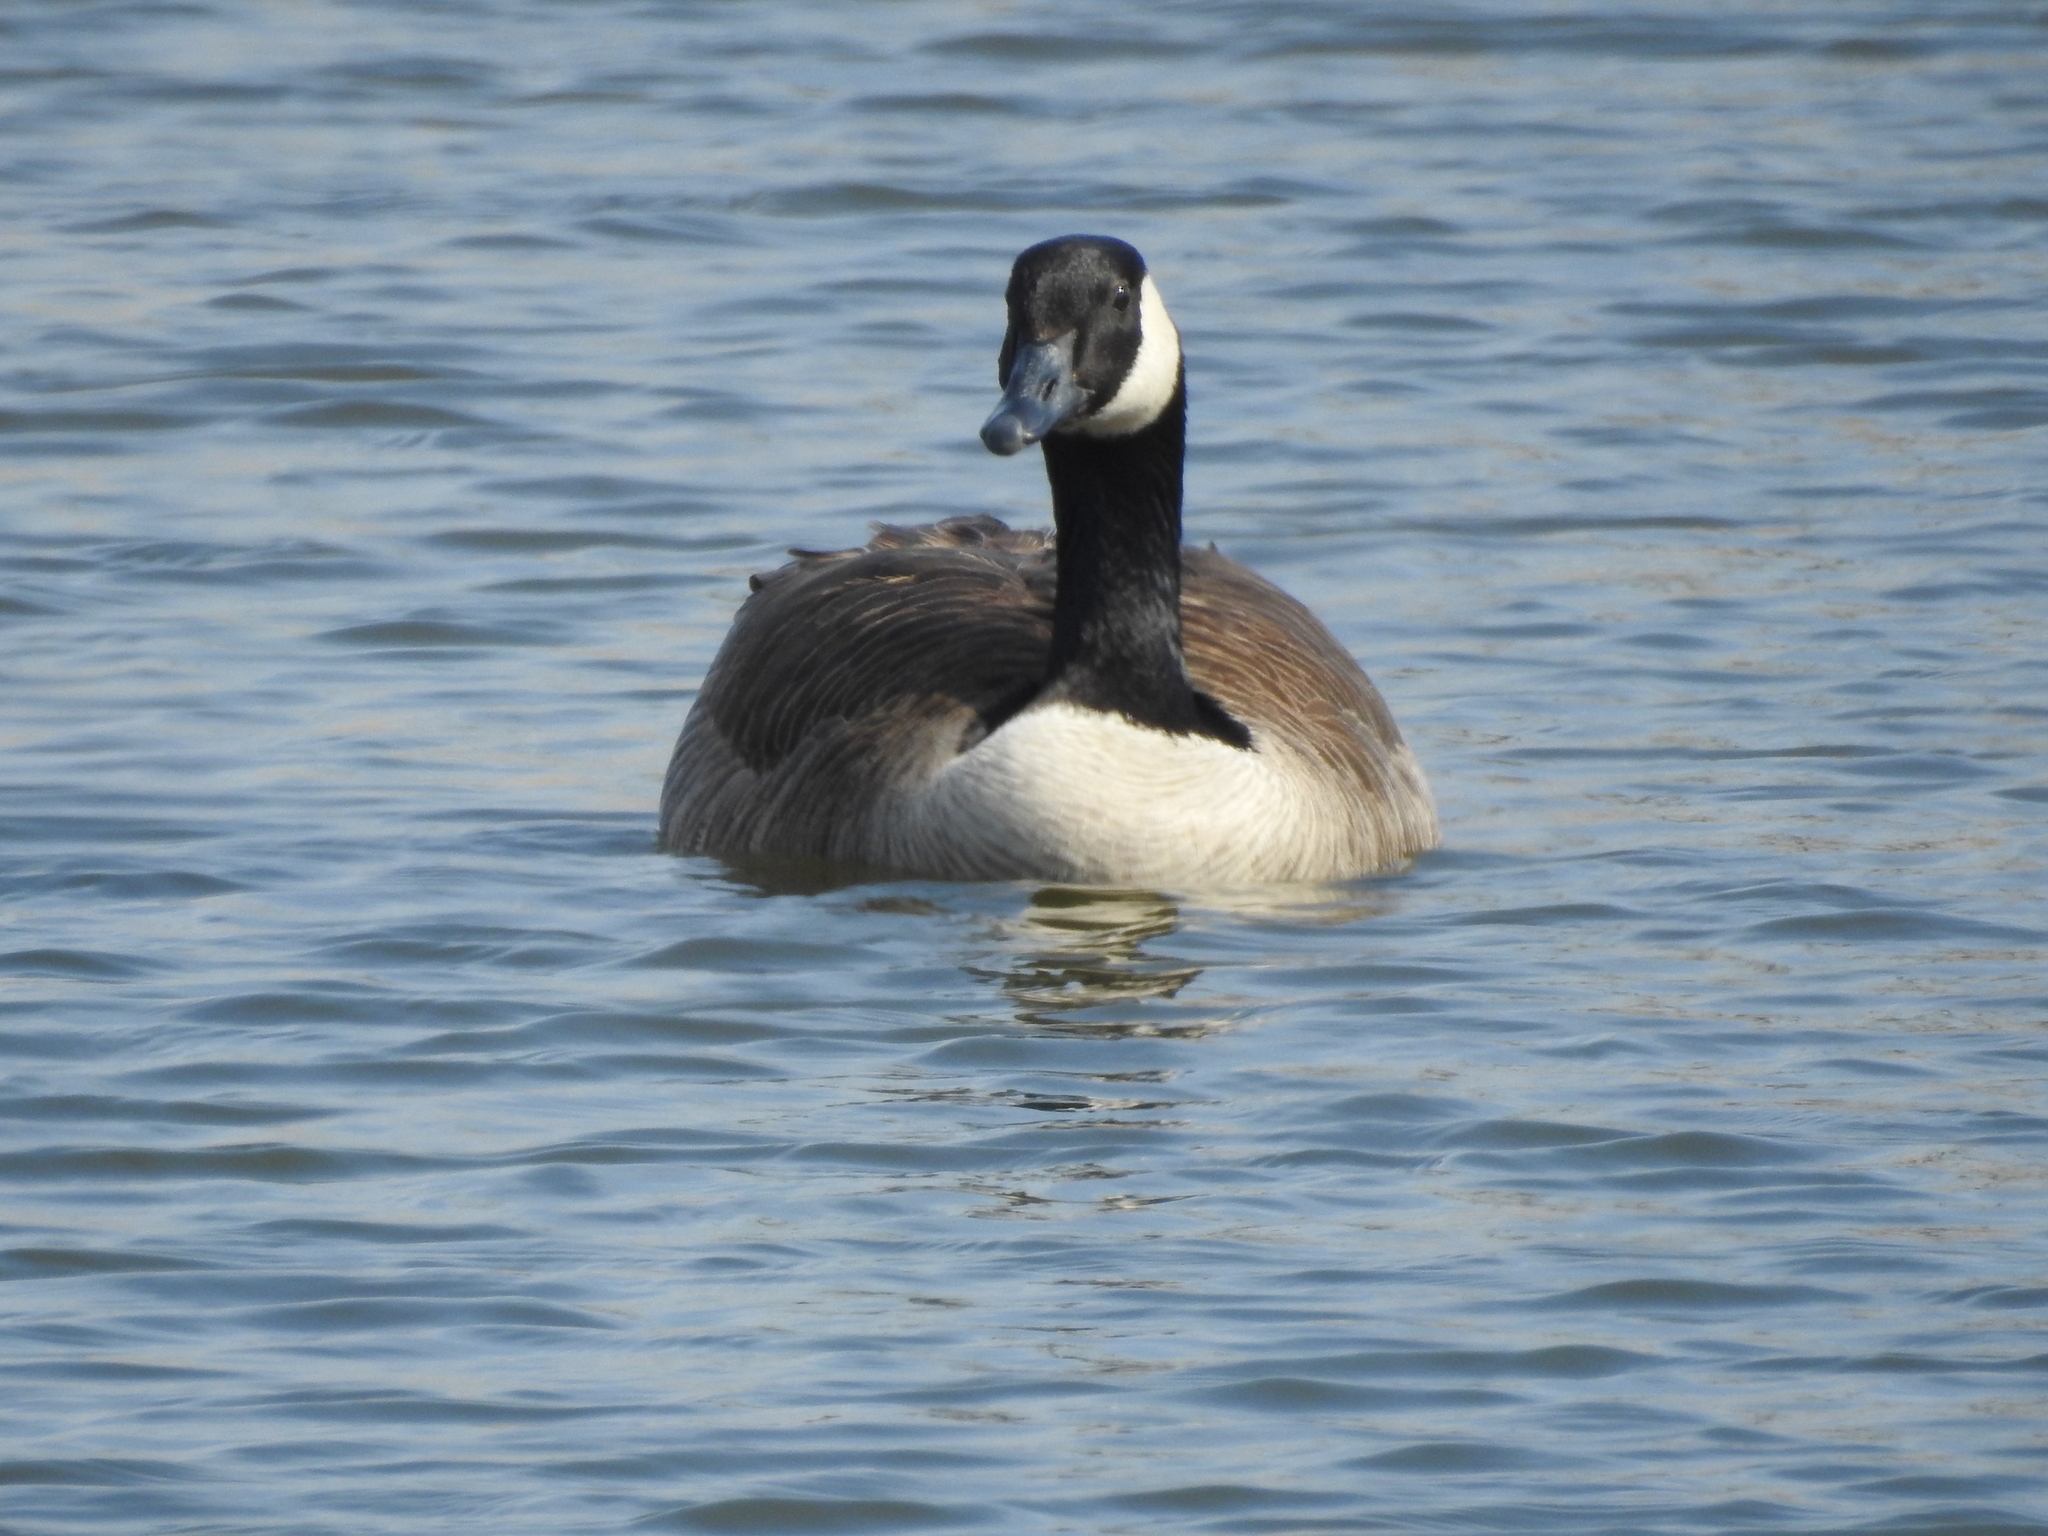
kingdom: Animalia
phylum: Chordata
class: Aves
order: Anseriformes
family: Anatidae
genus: Branta
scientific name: Branta canadensis
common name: Canada goose
